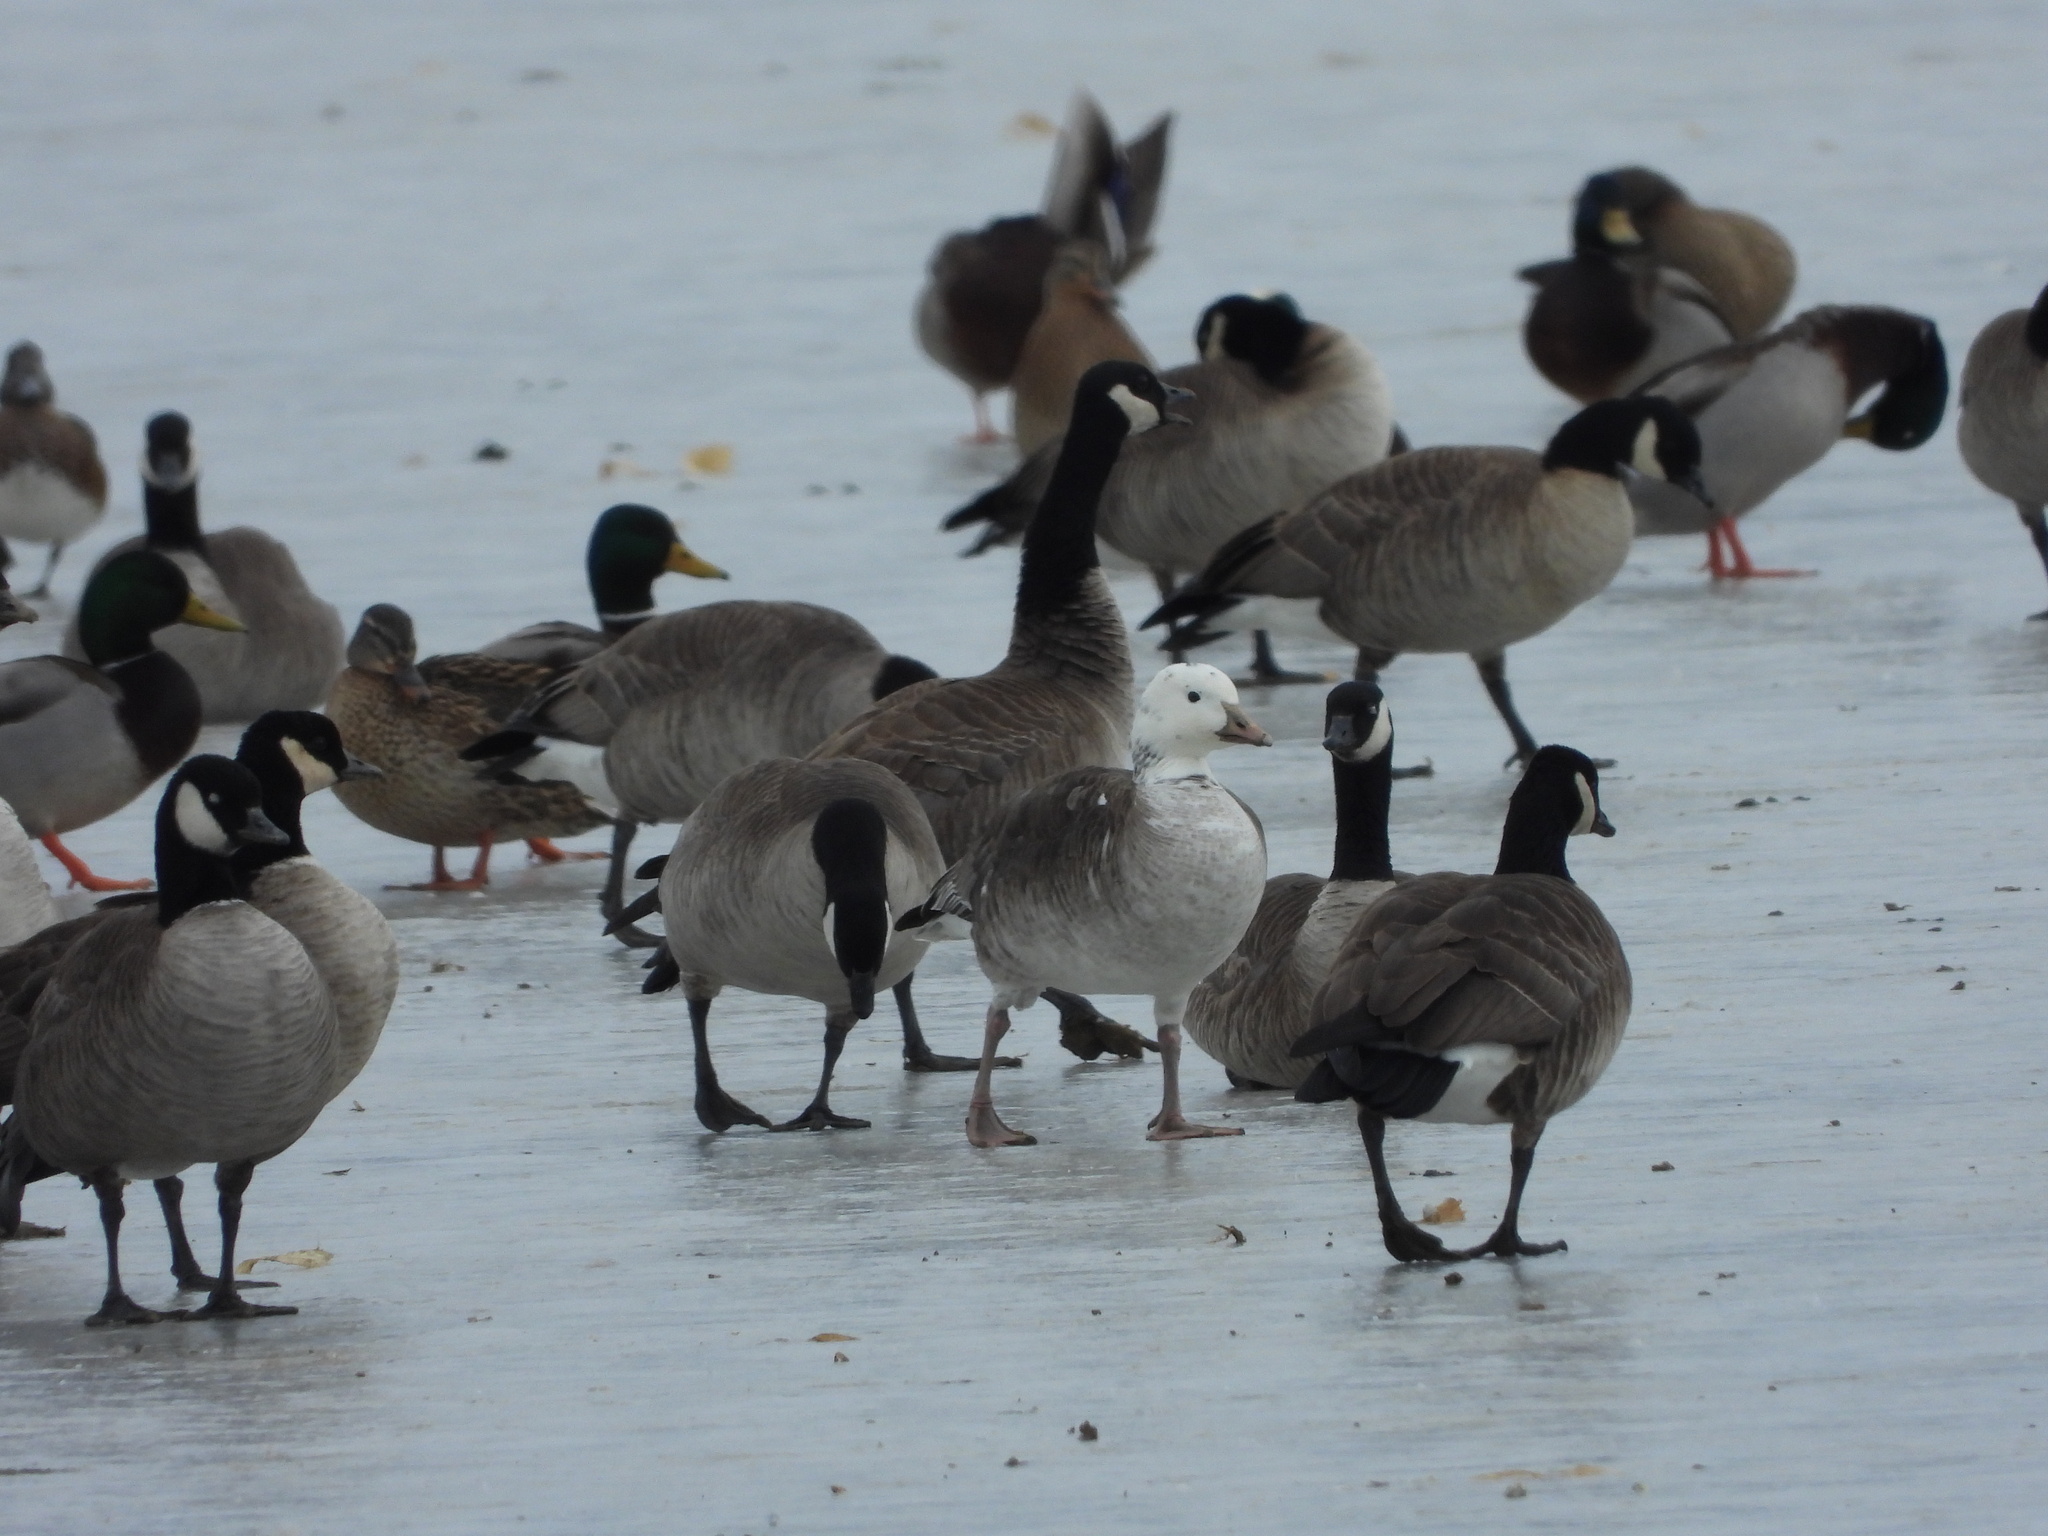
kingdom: Animalia
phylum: Chordata
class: Aves
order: Anseriformes
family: Anatidae
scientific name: Anatidae
